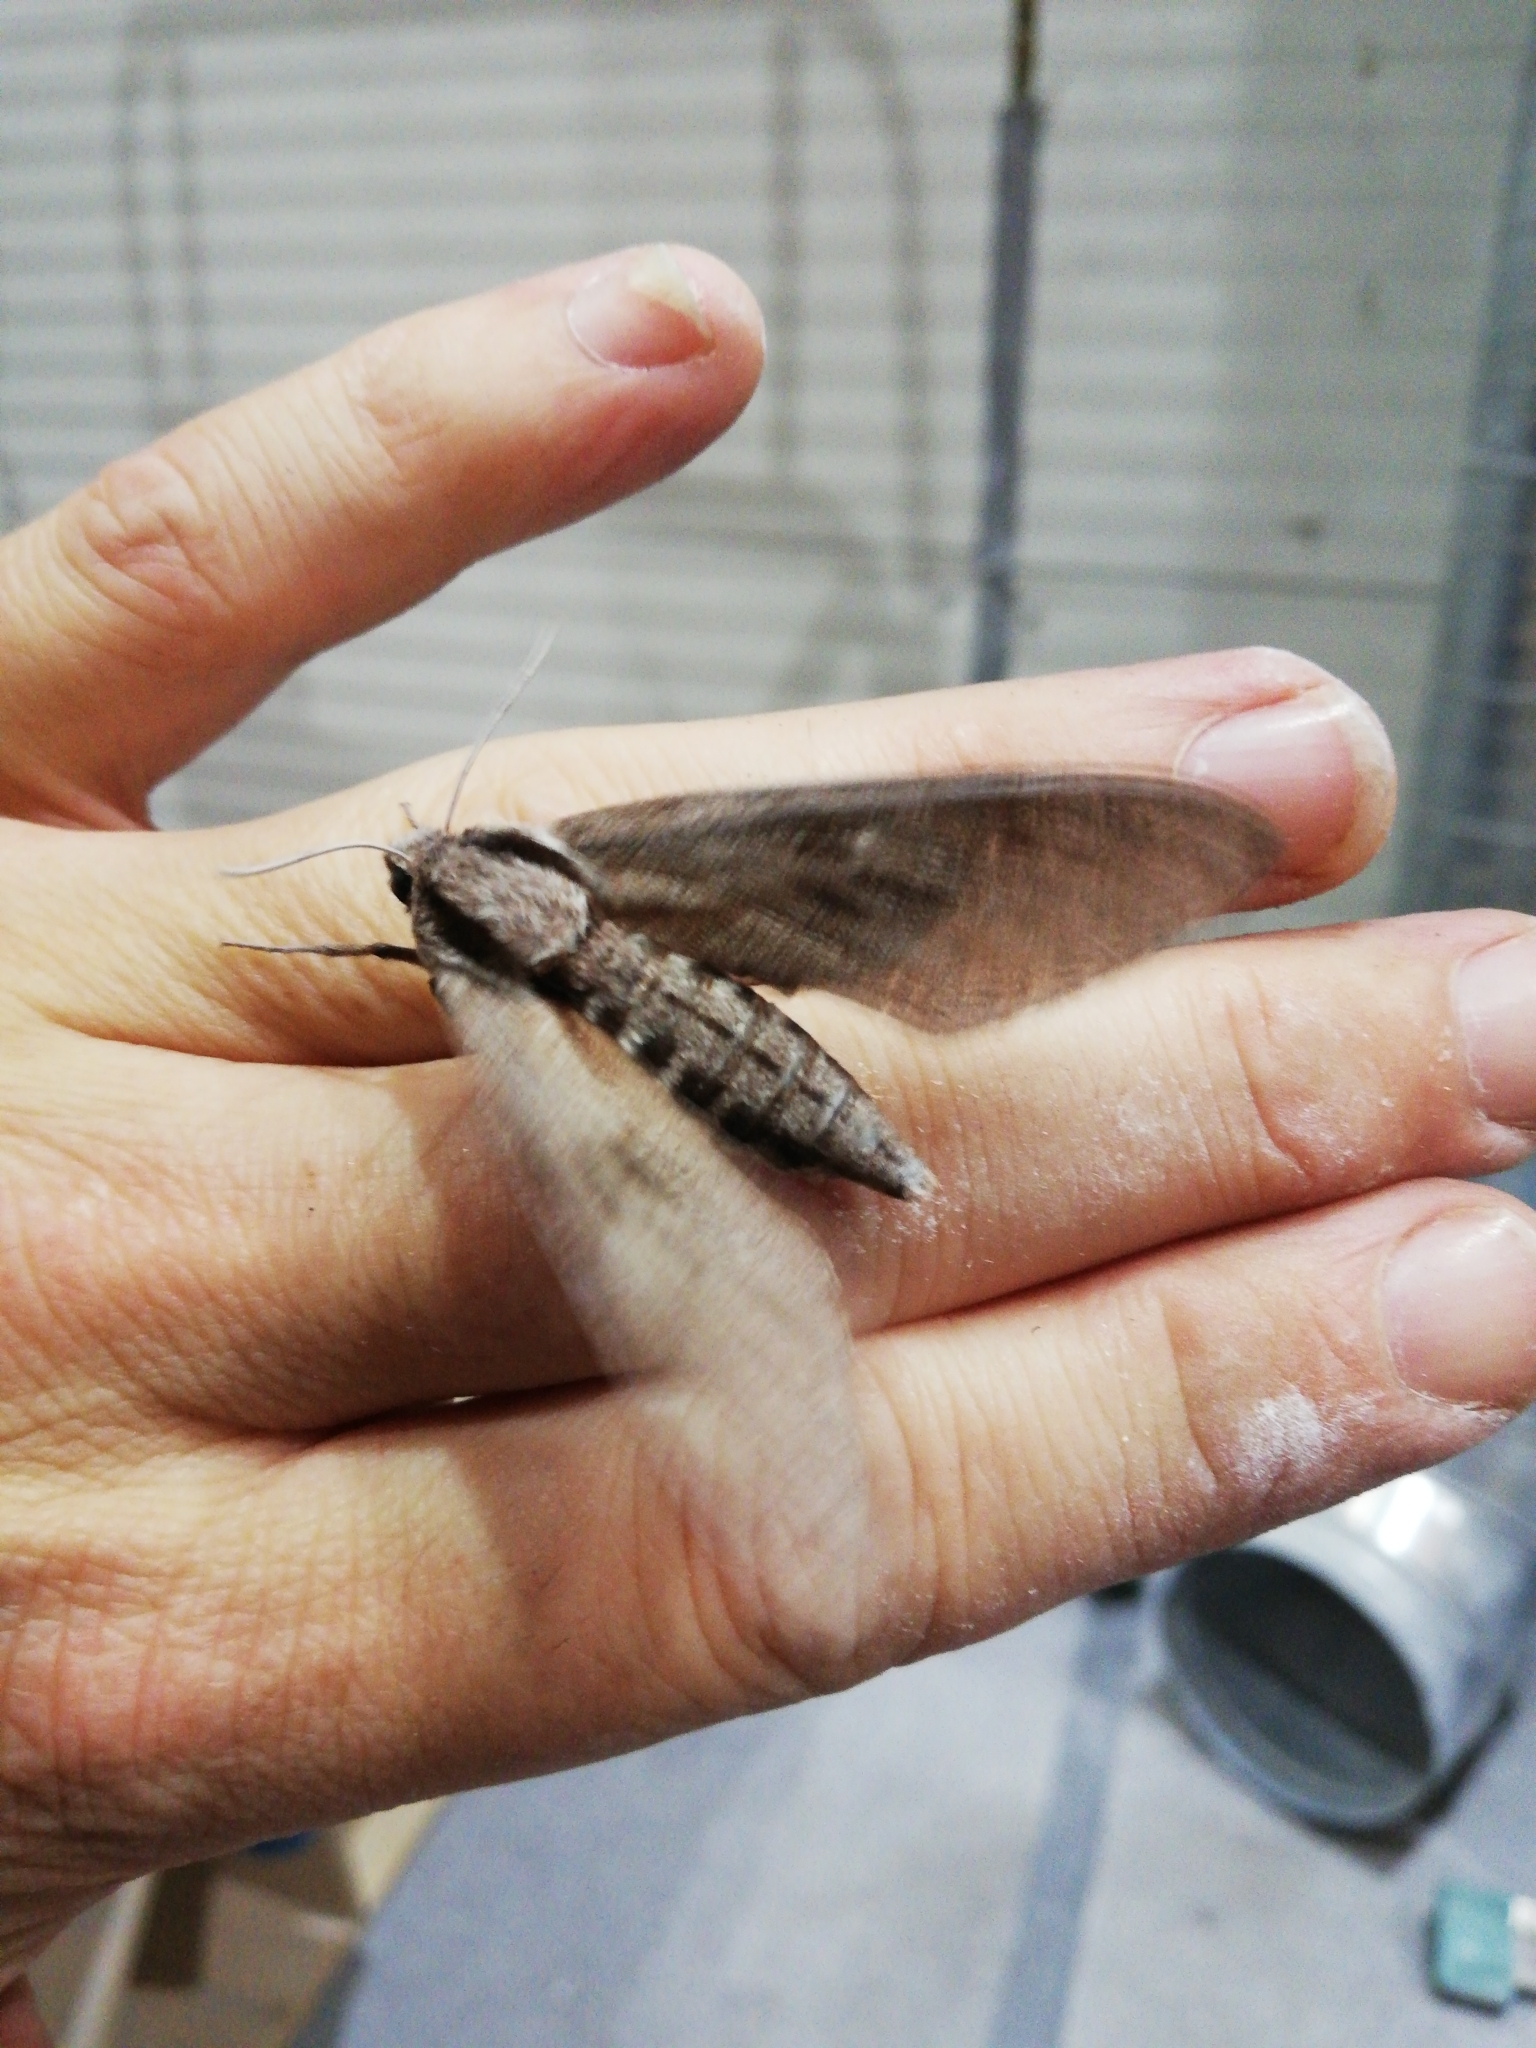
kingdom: Animalia
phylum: Arthropoda
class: Insecta
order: Lepidoptera
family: Sphingidae
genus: Sphinx
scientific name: Sphinx pinastri
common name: Pine hawk-moth
